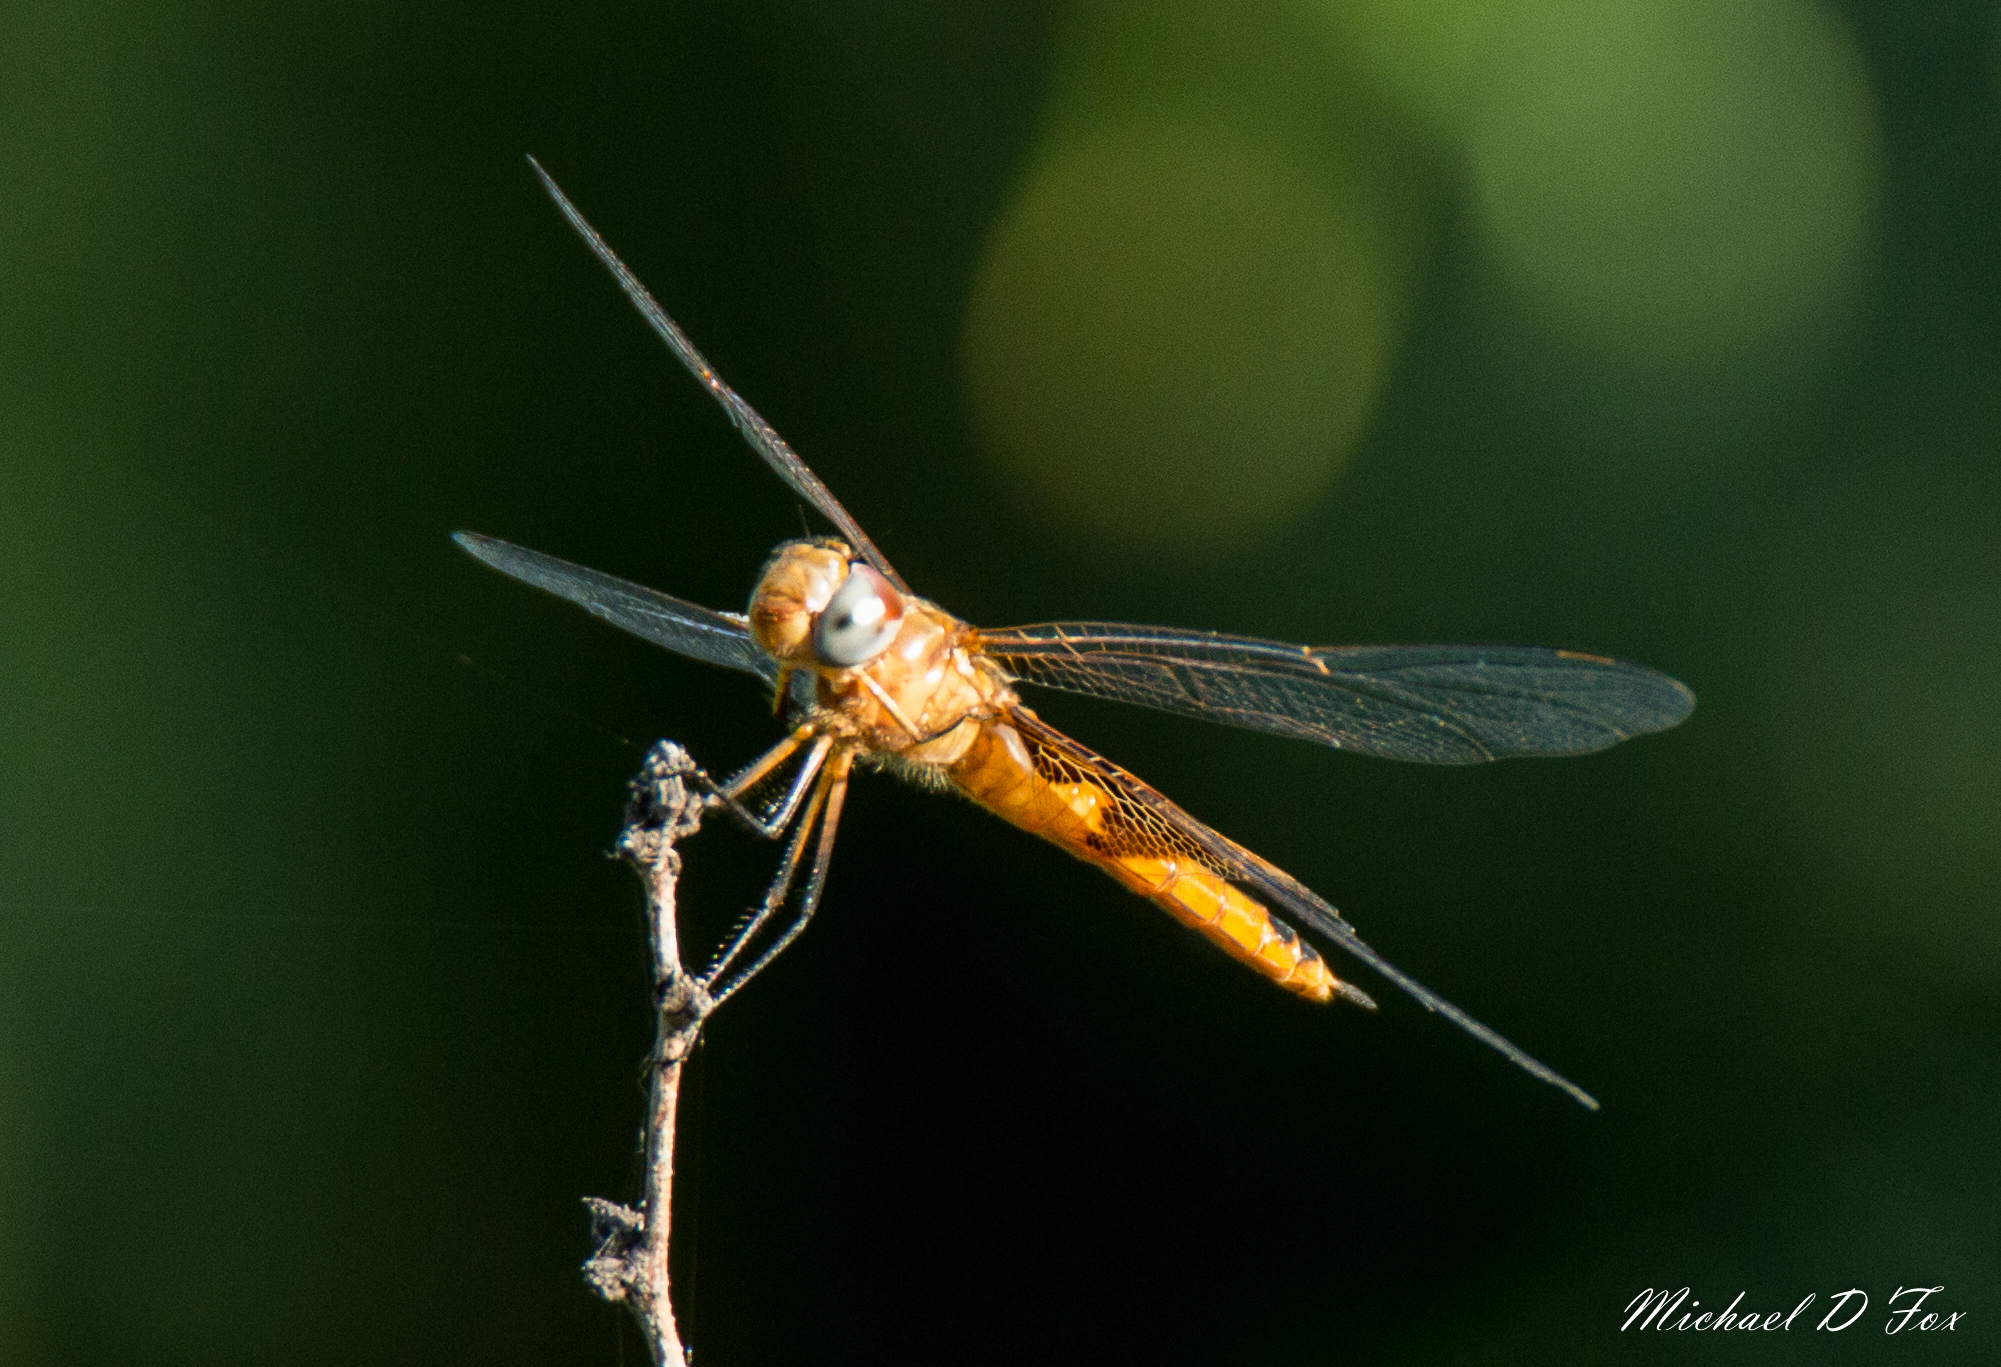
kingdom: Animalia
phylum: Arthropoda
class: Insecta
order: Odonata
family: Libellulidae
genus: Tramea
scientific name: Tramea onusta
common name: Red saddlebags
